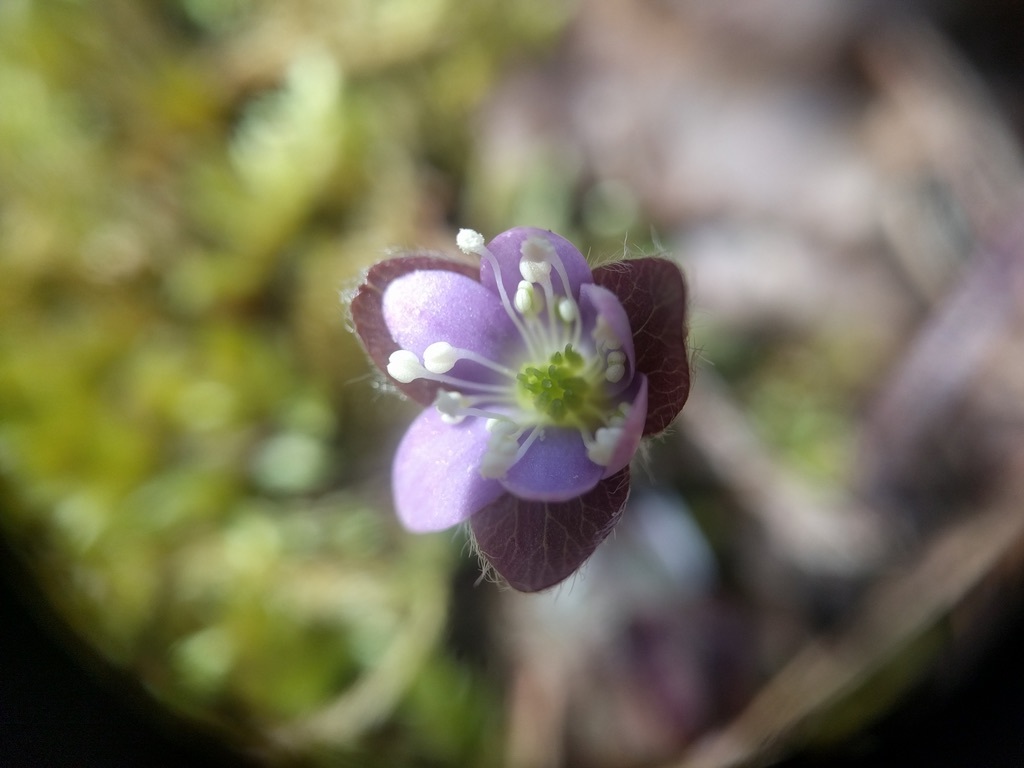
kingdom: Plantae
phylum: Tracheophyta
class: Magnoliopsida
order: Ranunculales
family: Ranunculaceae
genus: Hepatica
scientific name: Hepatica americana
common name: American hepatica
